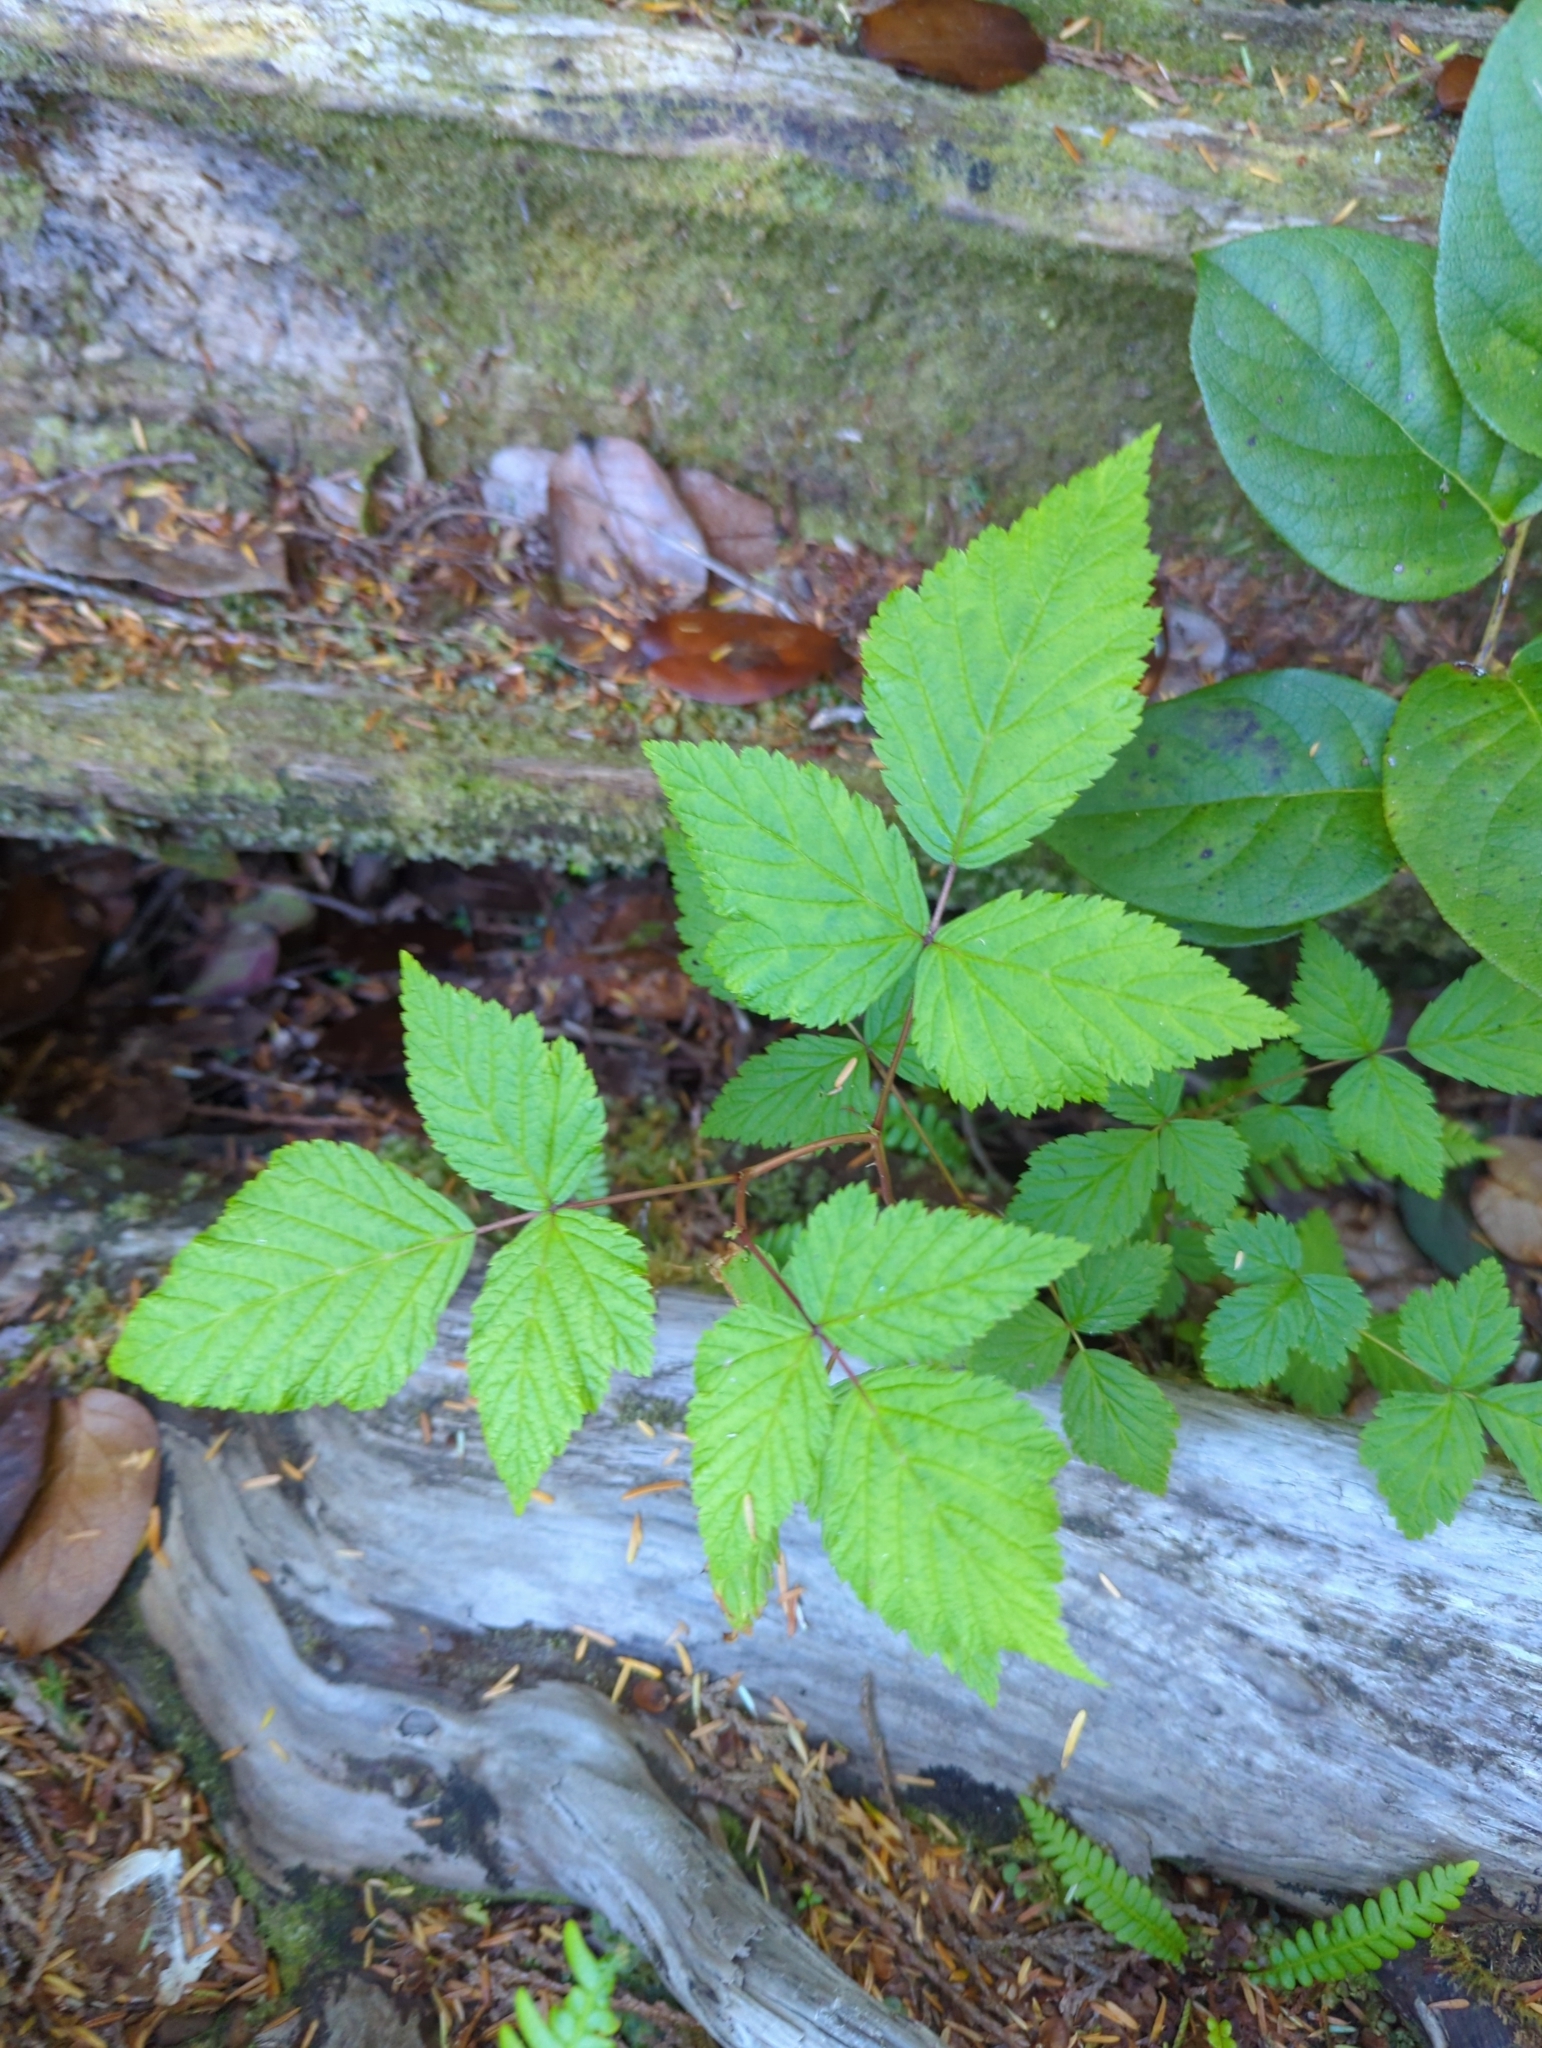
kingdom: Plantae
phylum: Tracheophyta
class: Magnoliopsida
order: Rosales
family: Rosaceae
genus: Rubus
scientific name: Rubus spectabilis
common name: Salmonberry
